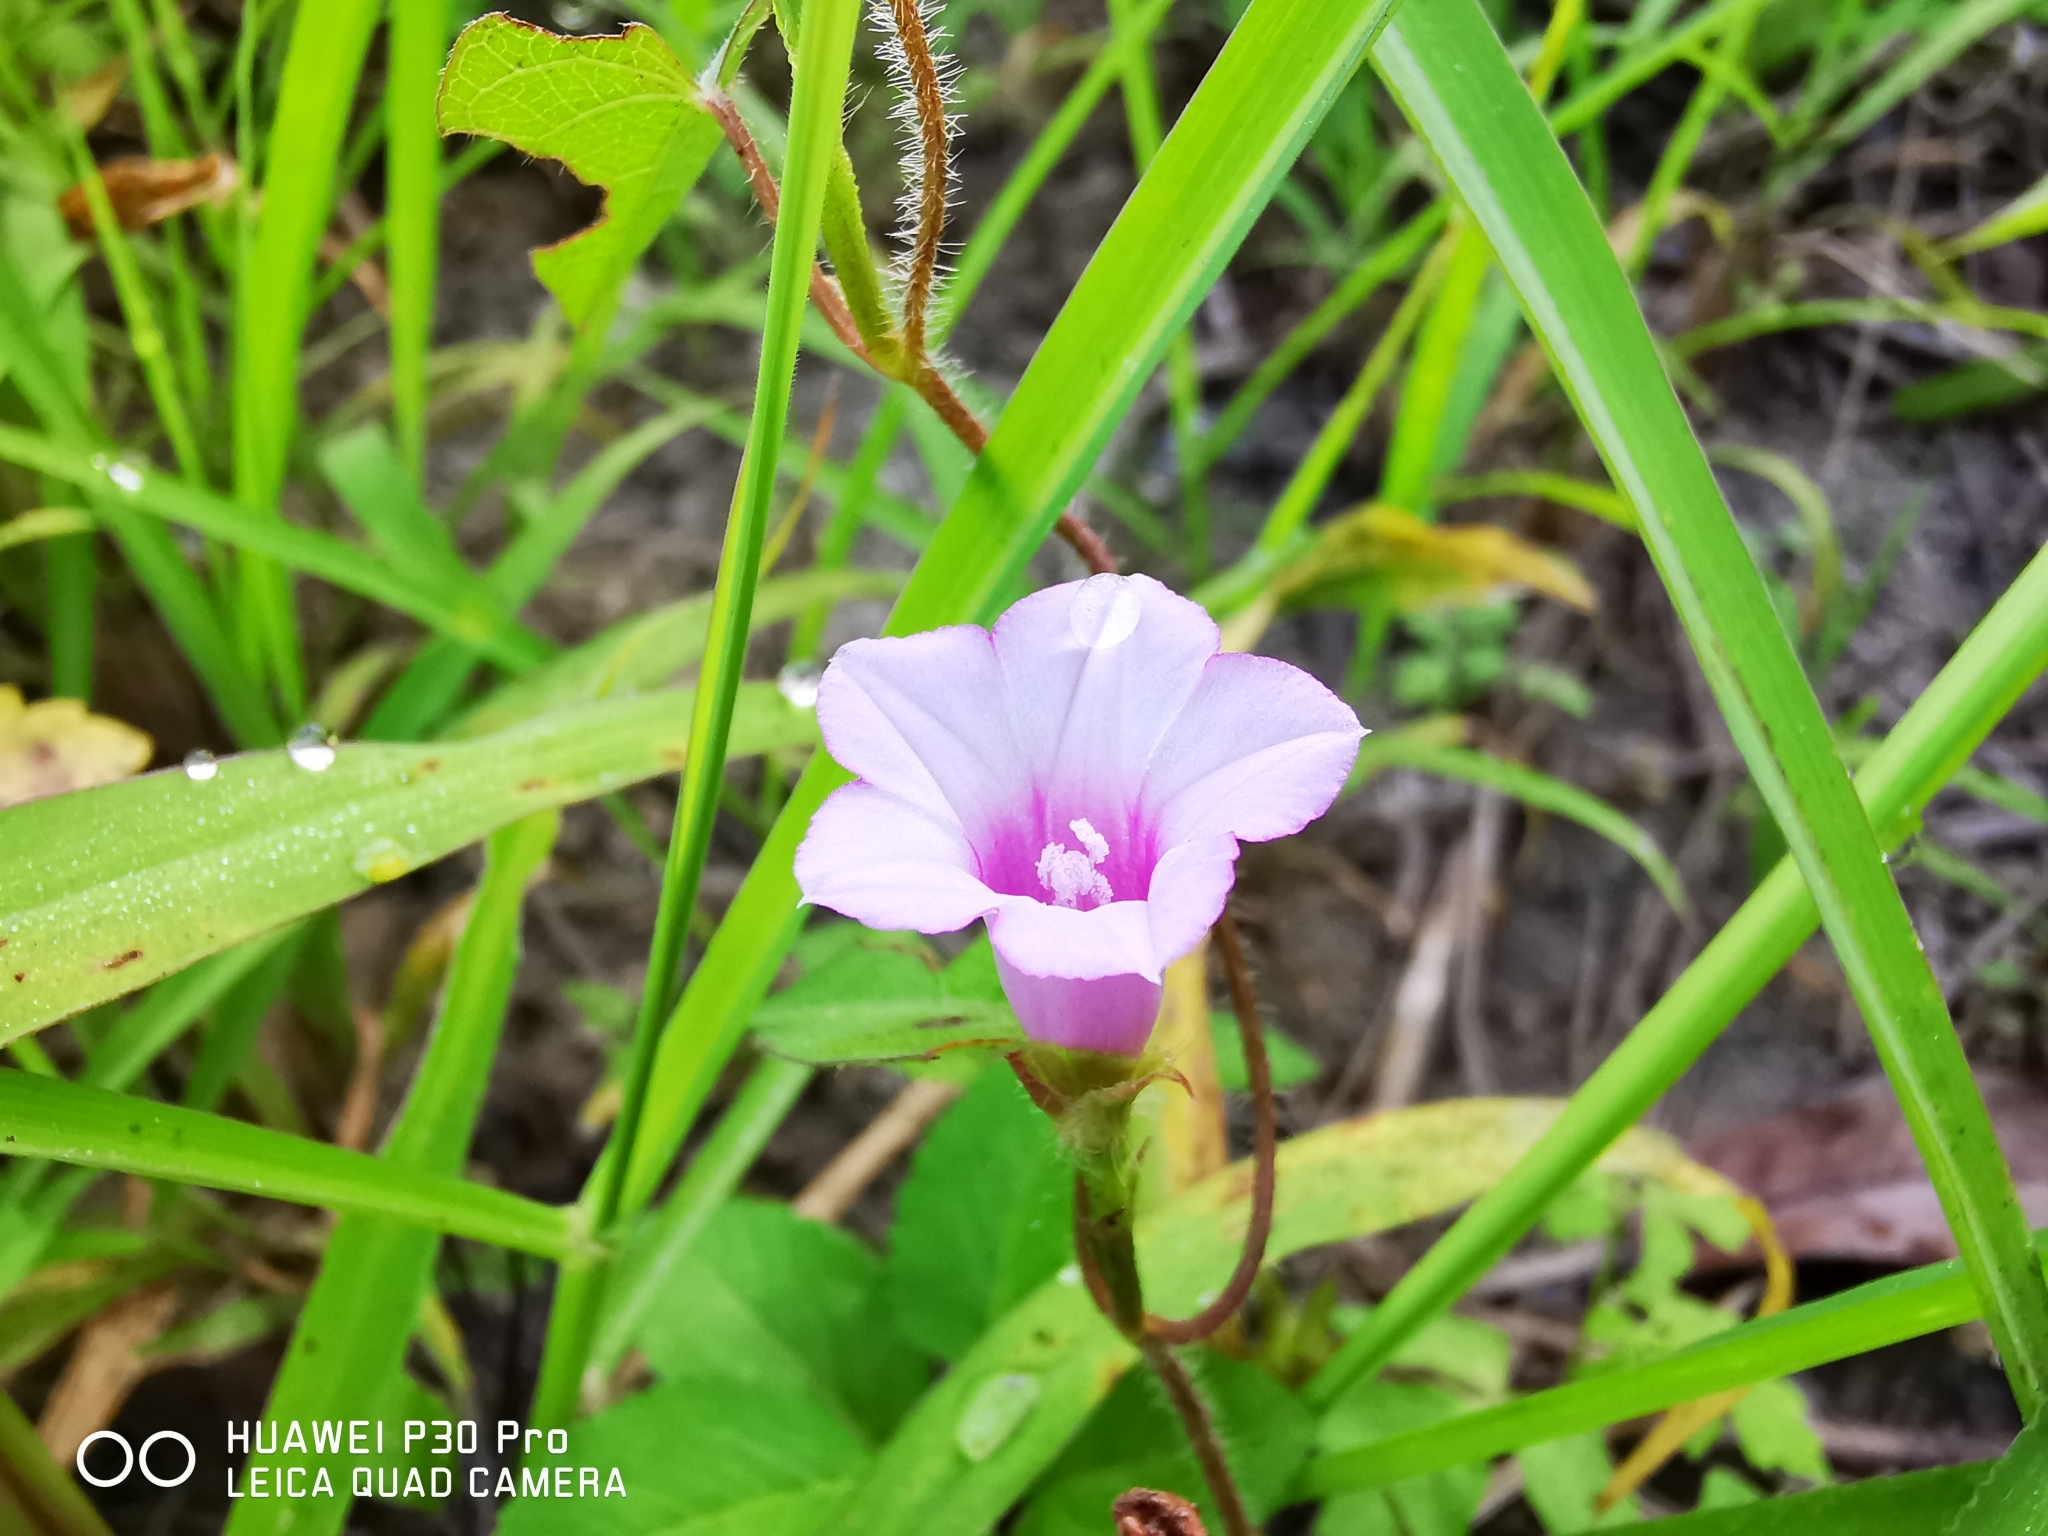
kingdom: Plantae
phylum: Tracheophyta
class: Magnoliopsida
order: Solanales
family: Convolvulaceae
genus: Ipomoea
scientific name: Ipomoea triloba
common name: Little-bell
